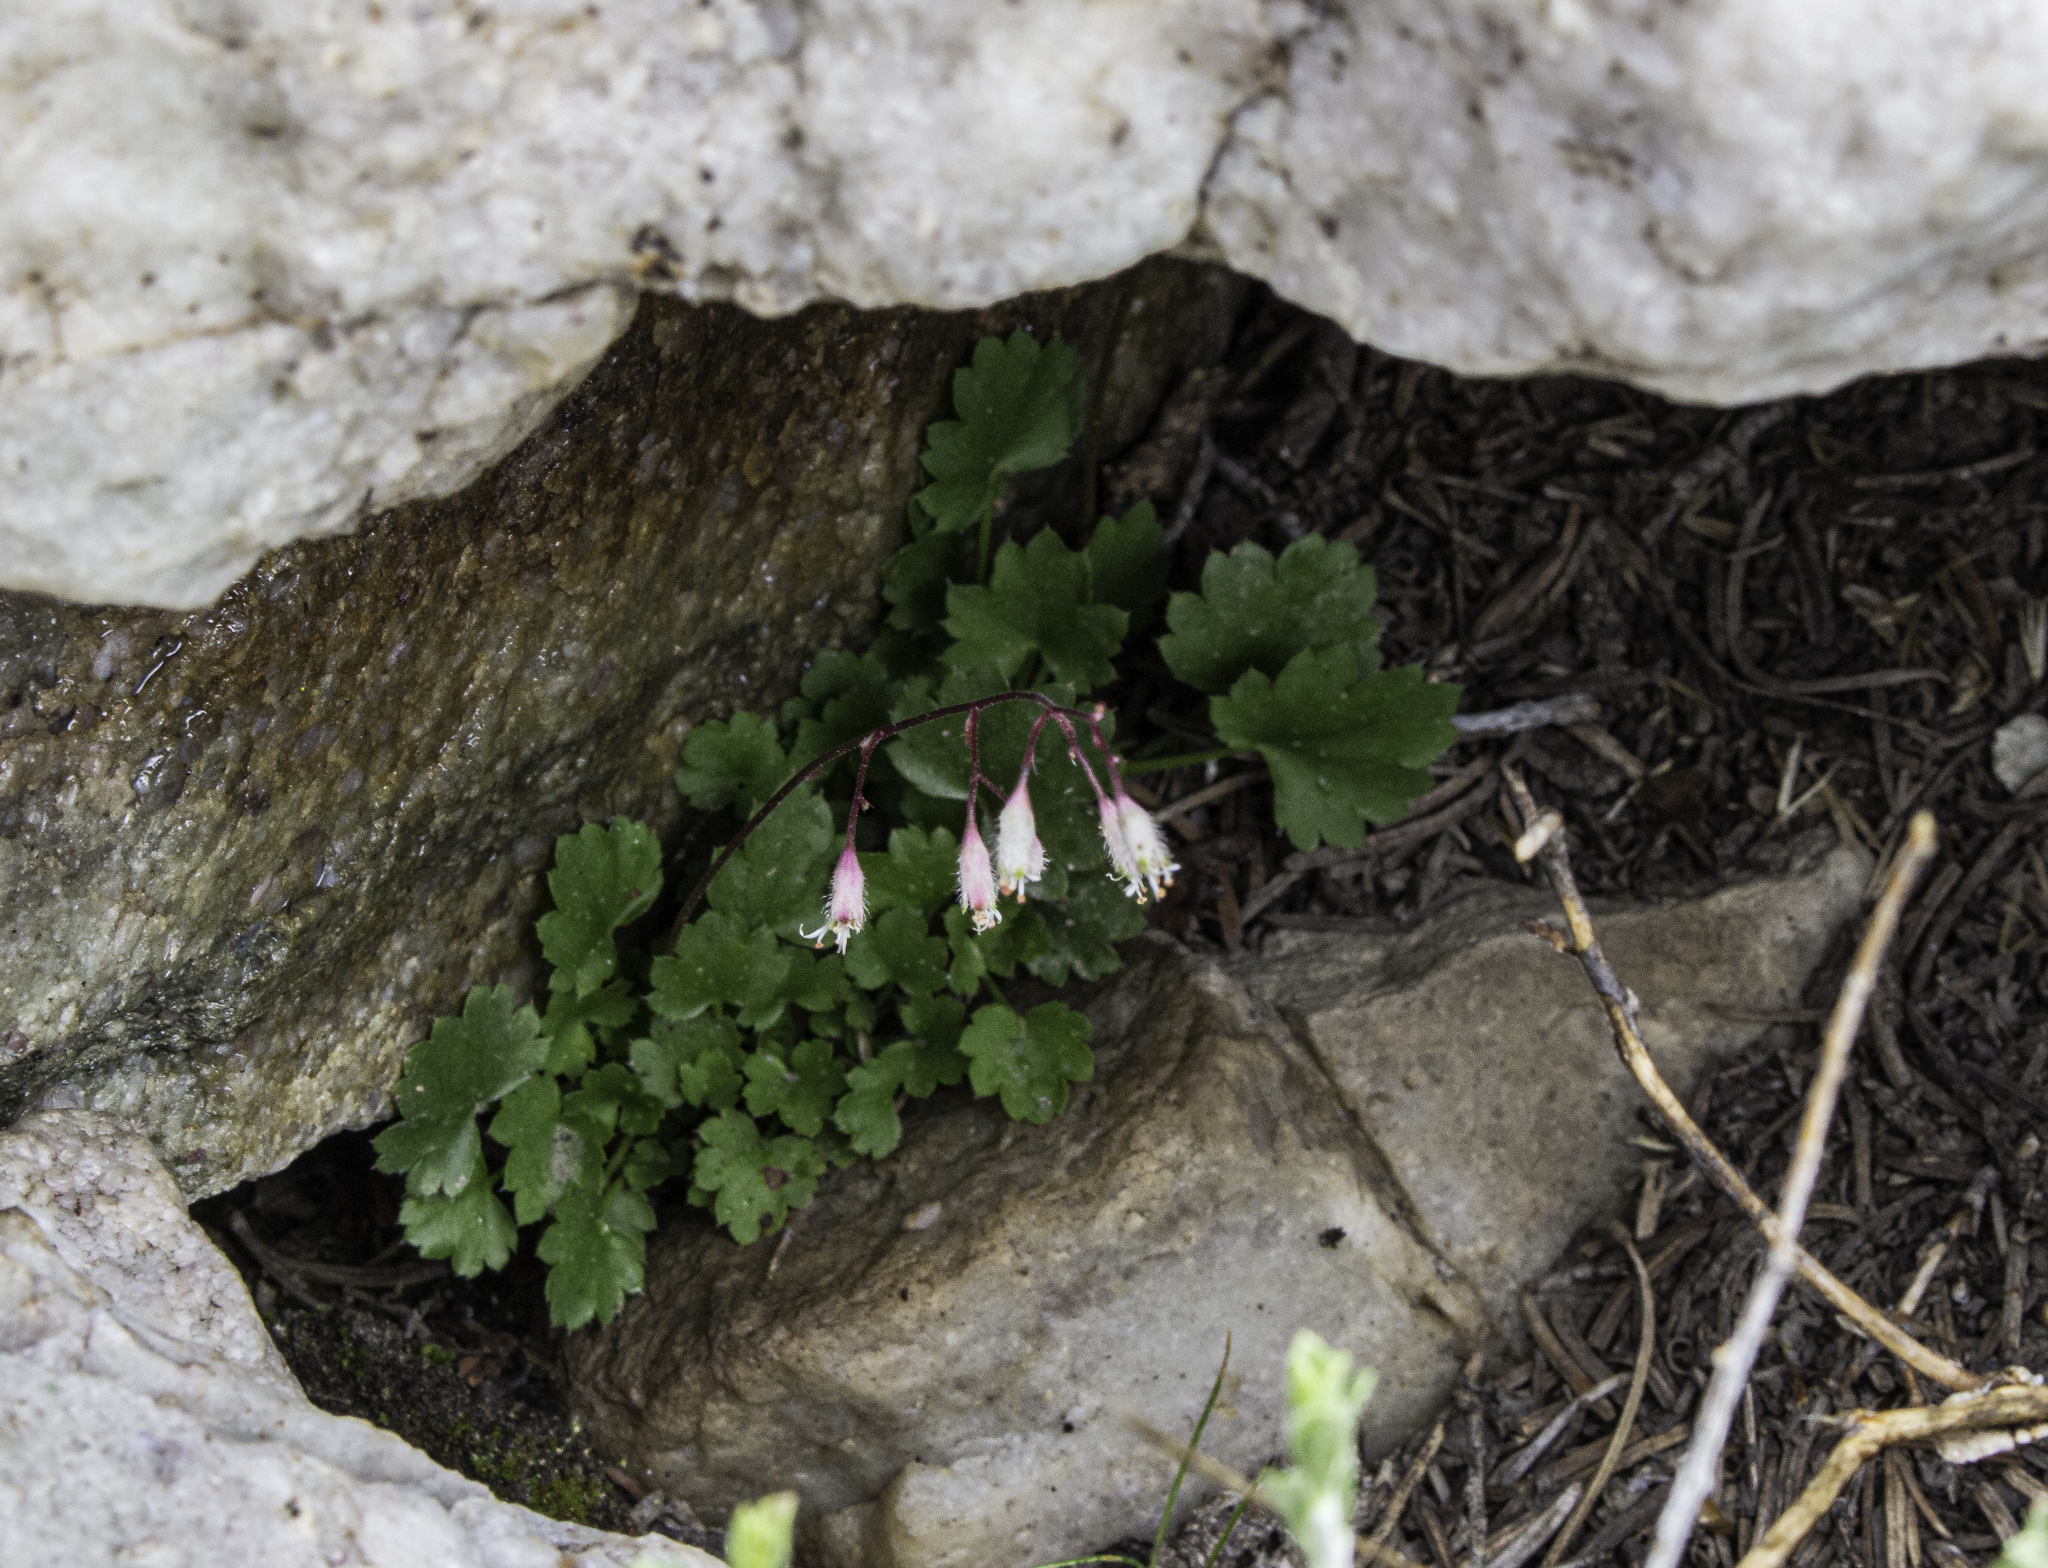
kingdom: Plantae
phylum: Tracheophyta
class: Magnoliopsida
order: Saxifragales
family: Saxifragaceae
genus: Heuchera
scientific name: Heuchera rubescens
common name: Jack-o'the-rocks
